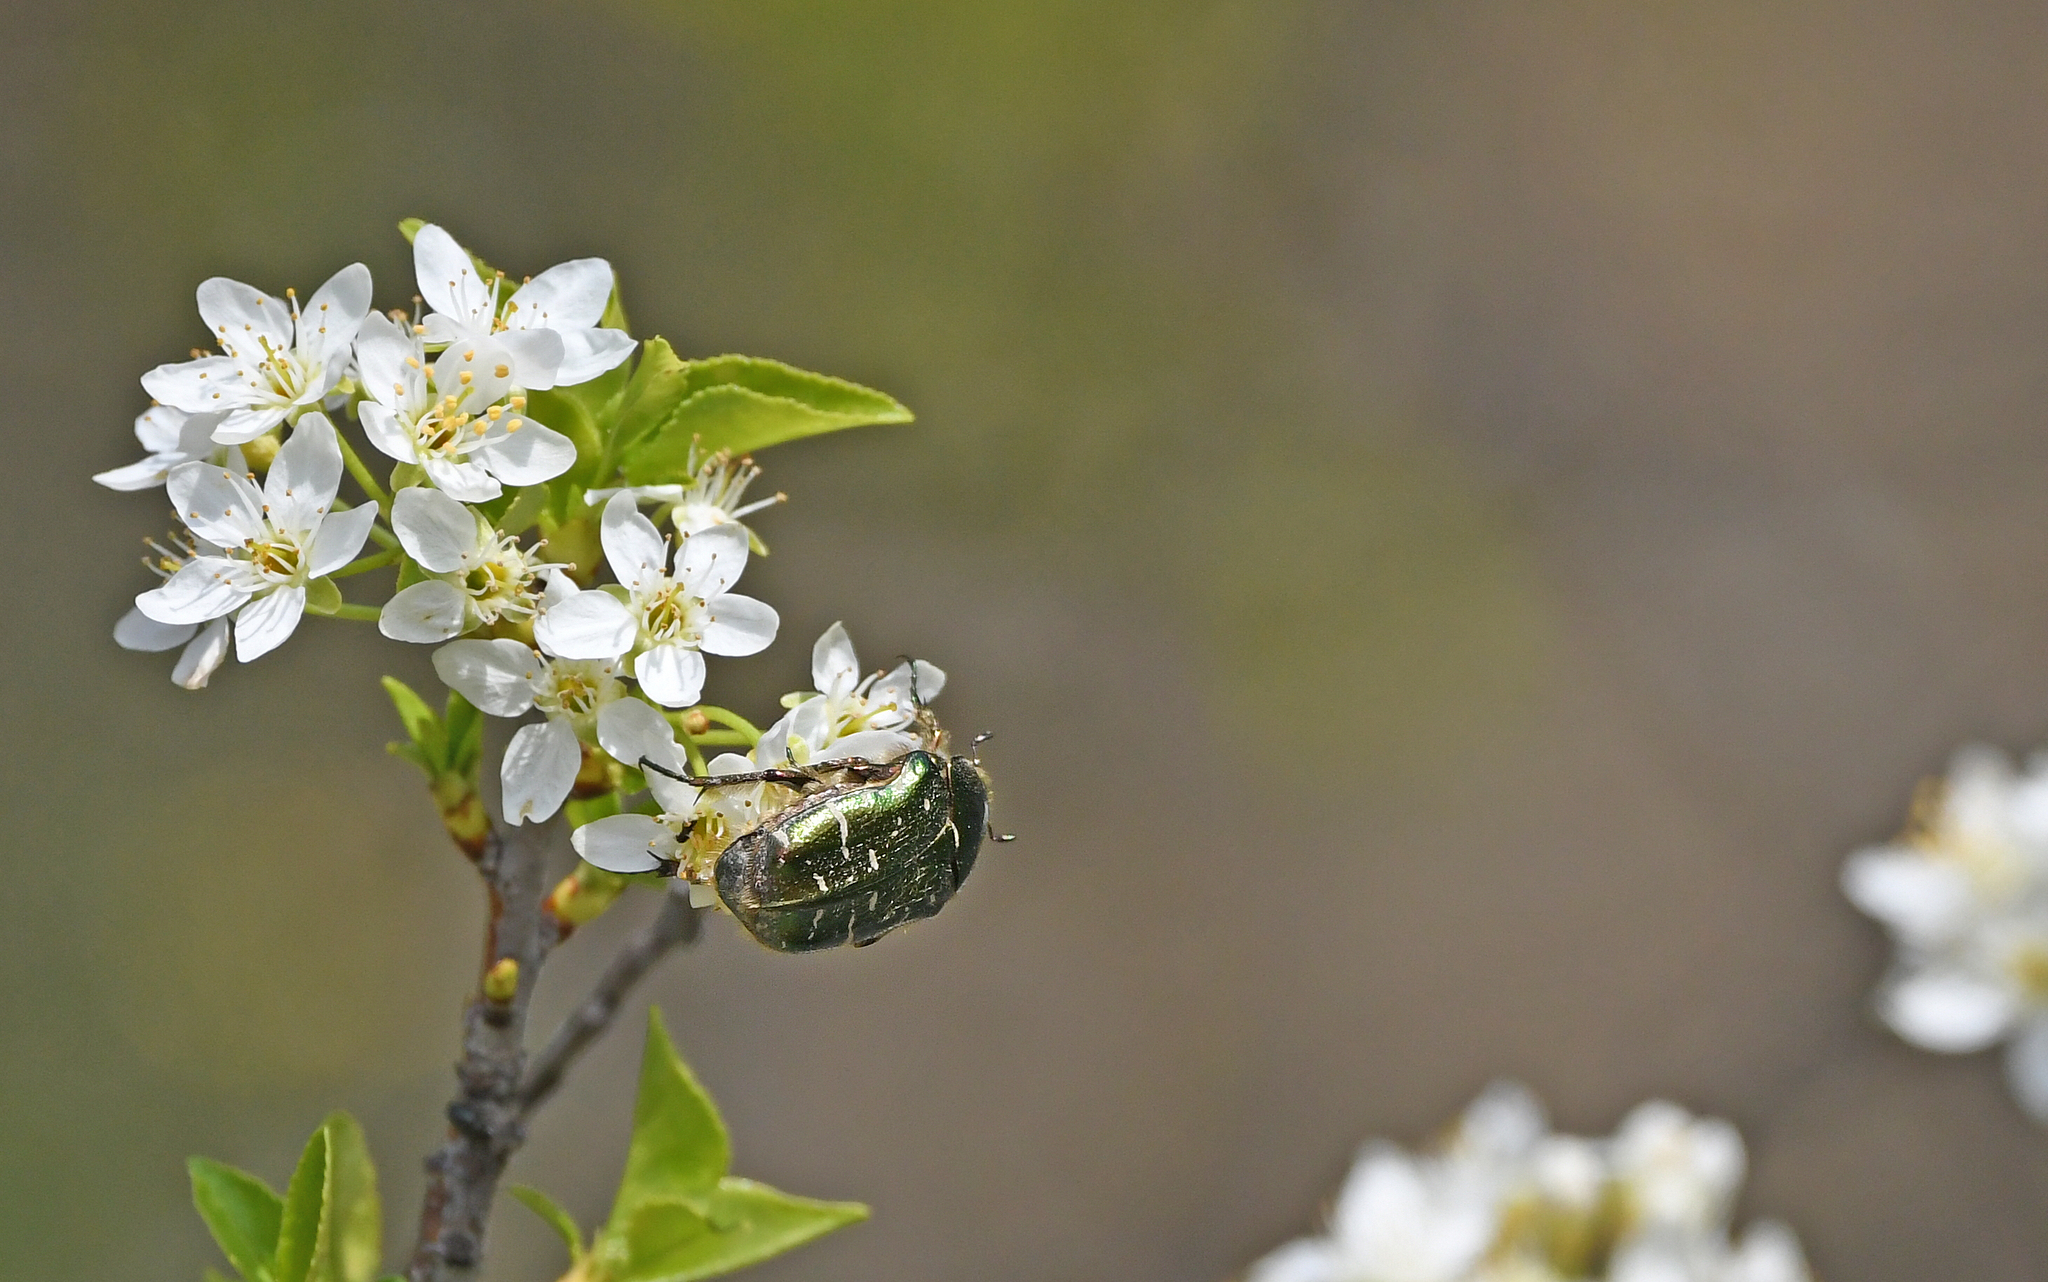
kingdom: Animalia
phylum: Arthropoda
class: Insecta
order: Coleoptera
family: Scarabaeidae
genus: Cetonia
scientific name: Cetonia aurata
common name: Rose chafer
